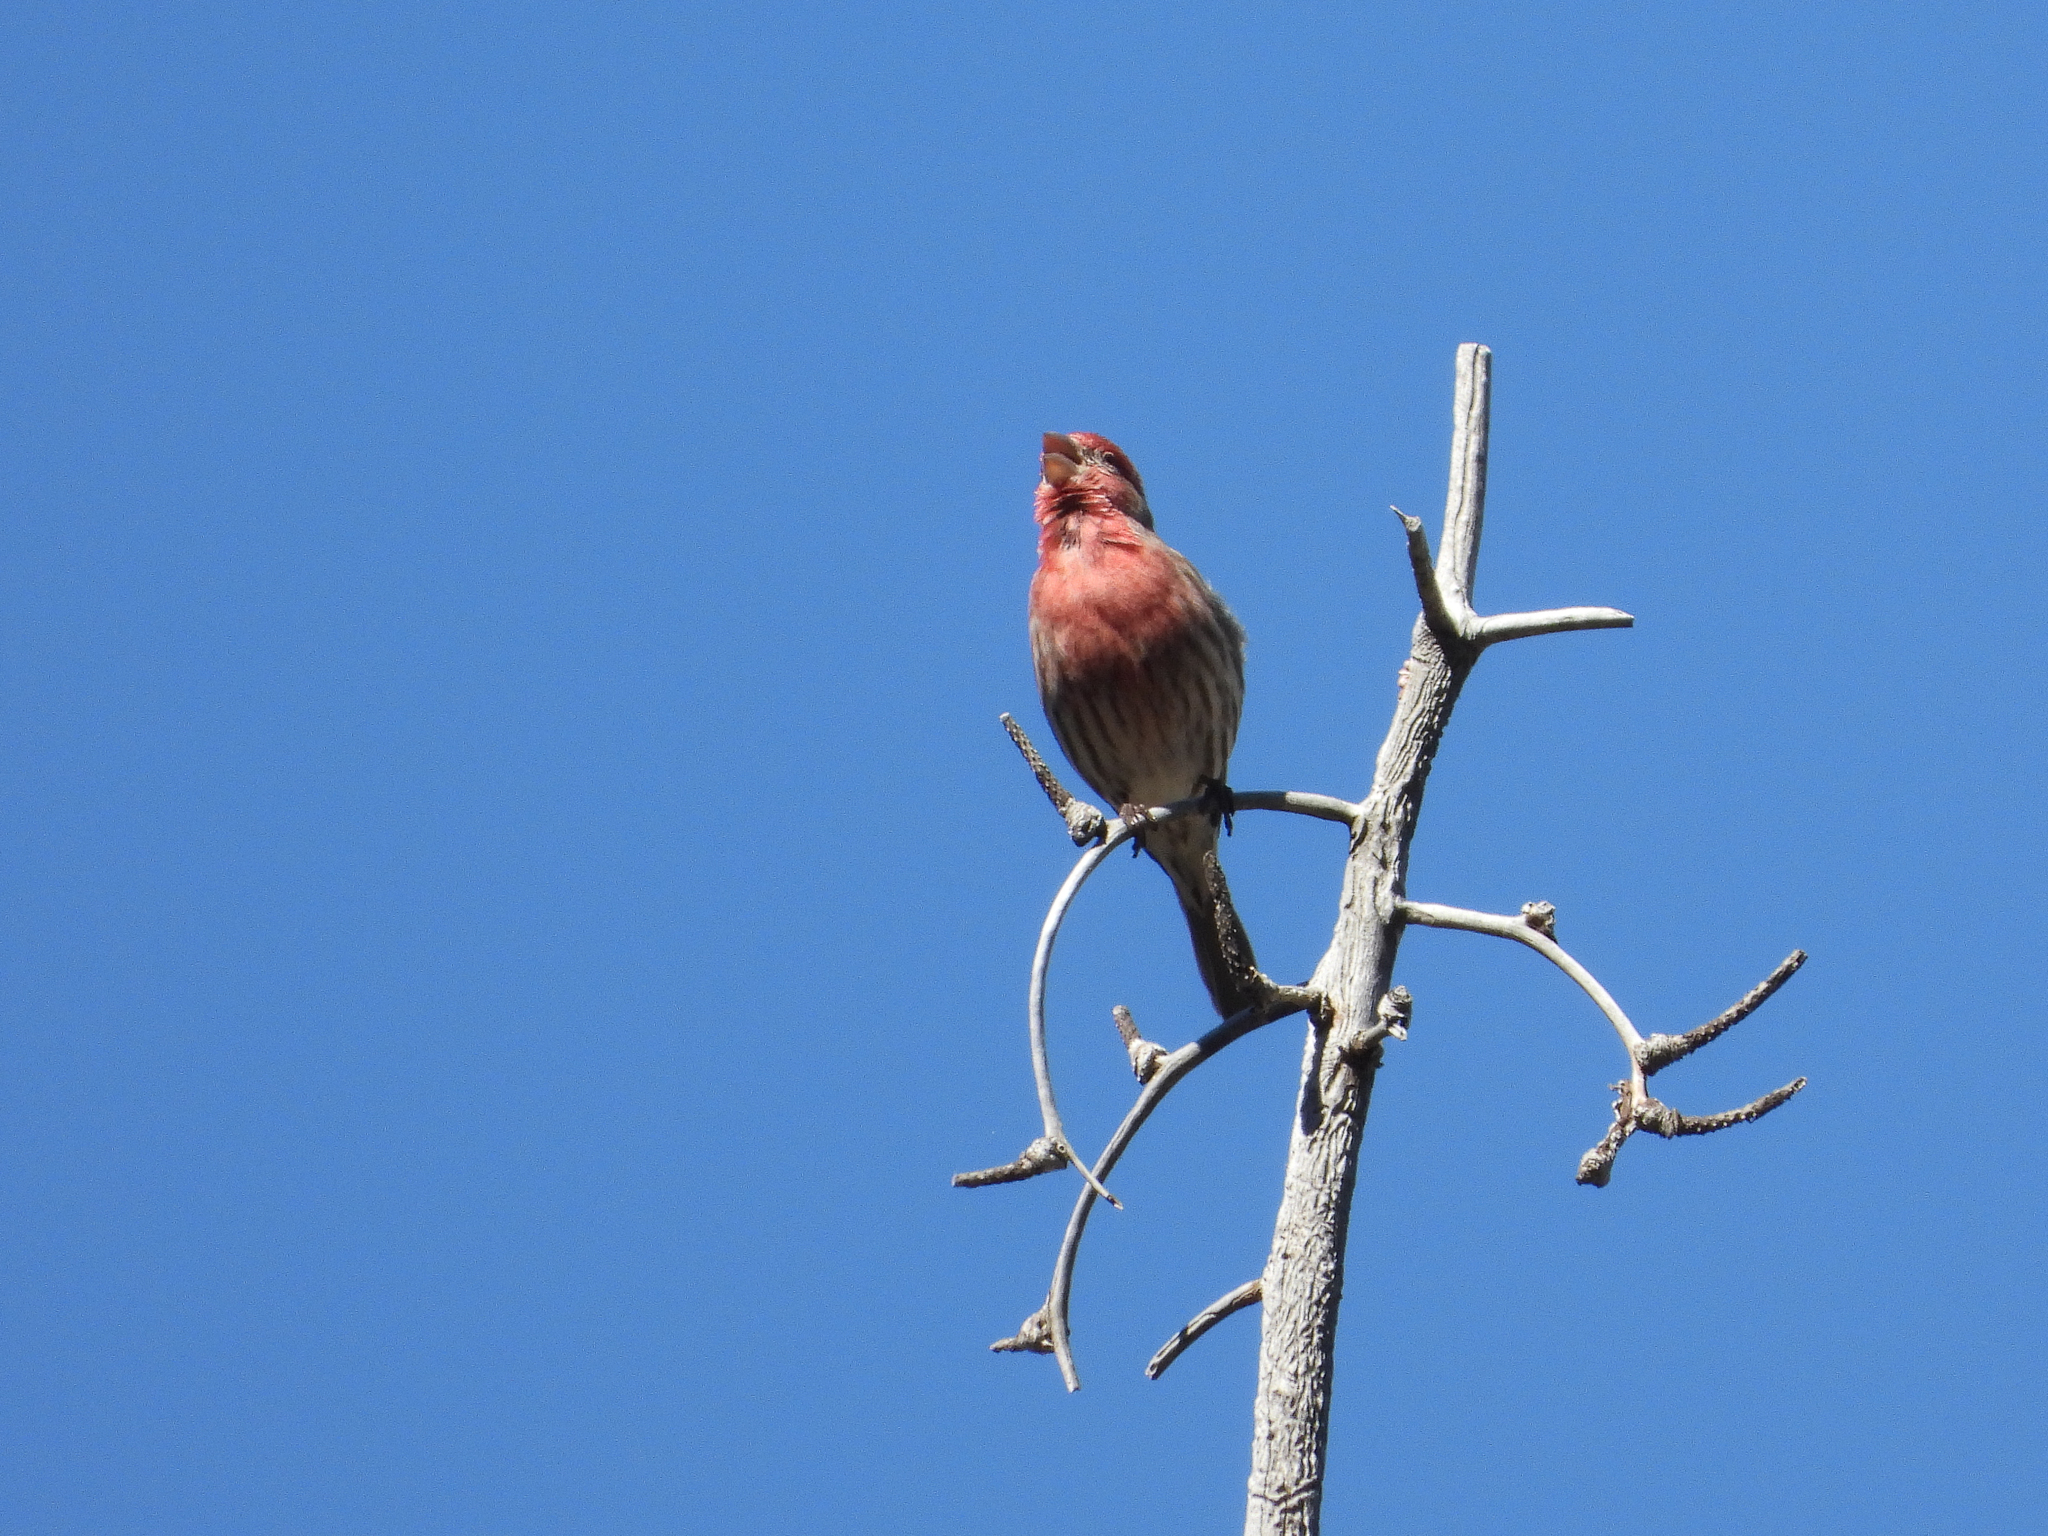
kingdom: Animalia
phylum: Chordata
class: Aves
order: Passeriformes
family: Fringillidae
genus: Haemorhous
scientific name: Haemorhous mexicanus
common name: House finch
